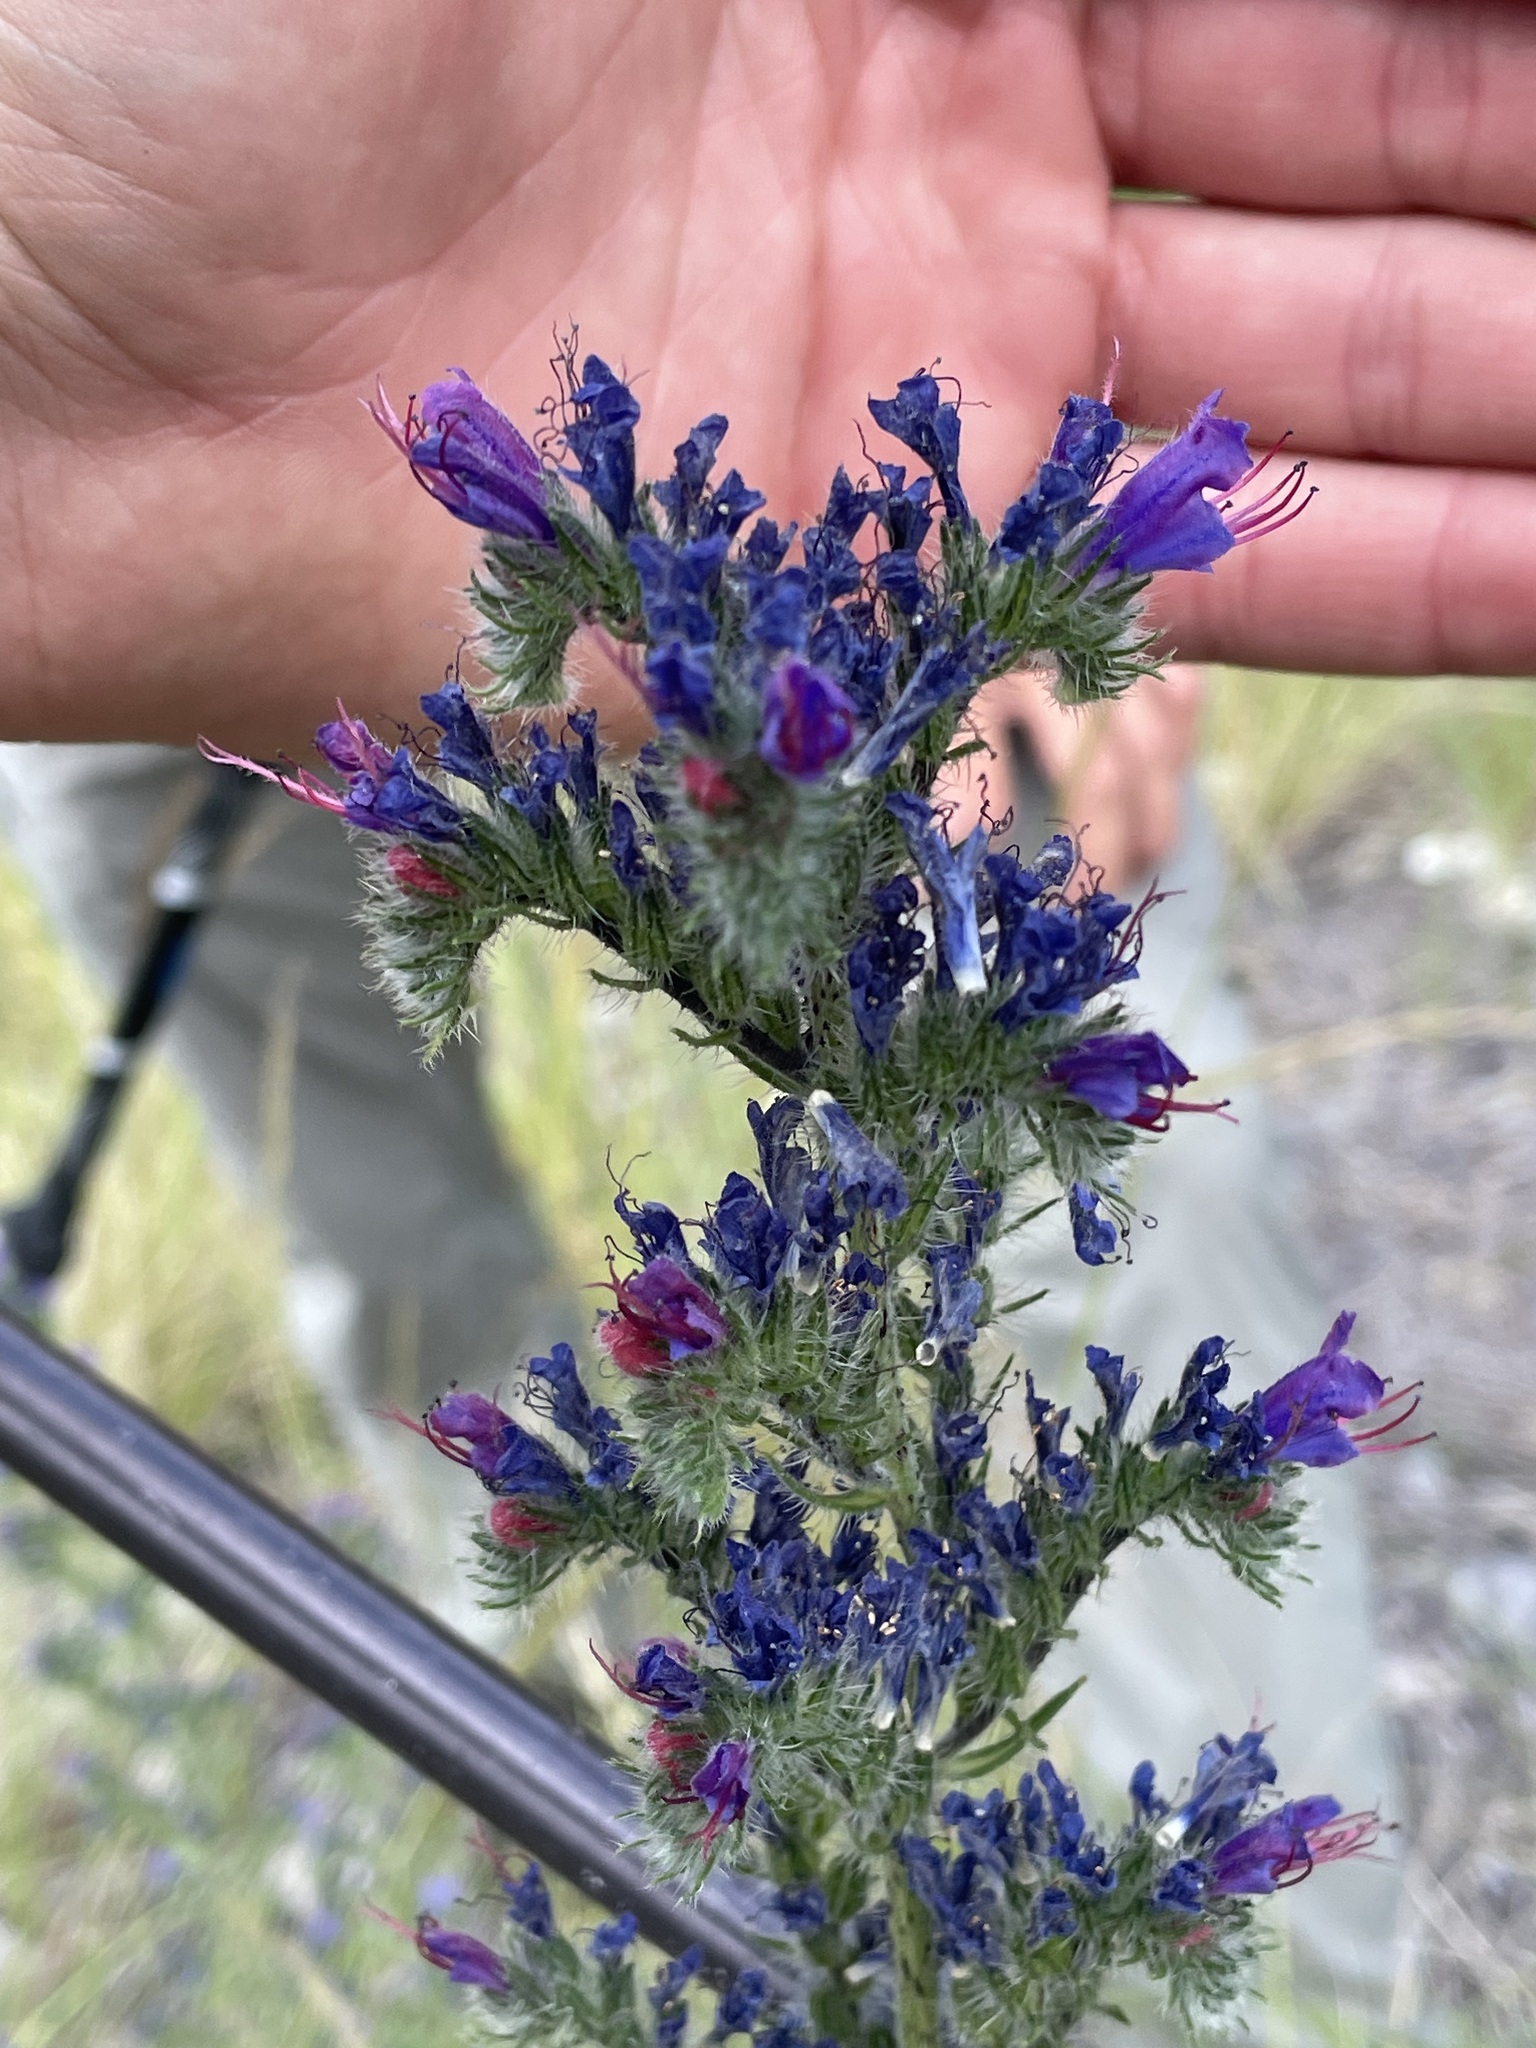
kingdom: Plantae
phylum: Tracheophyta
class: Magnoliopsida
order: Boraginales
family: Boraginaceae
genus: Echium
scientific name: Echium vulgare
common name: Common viper's bugloss
